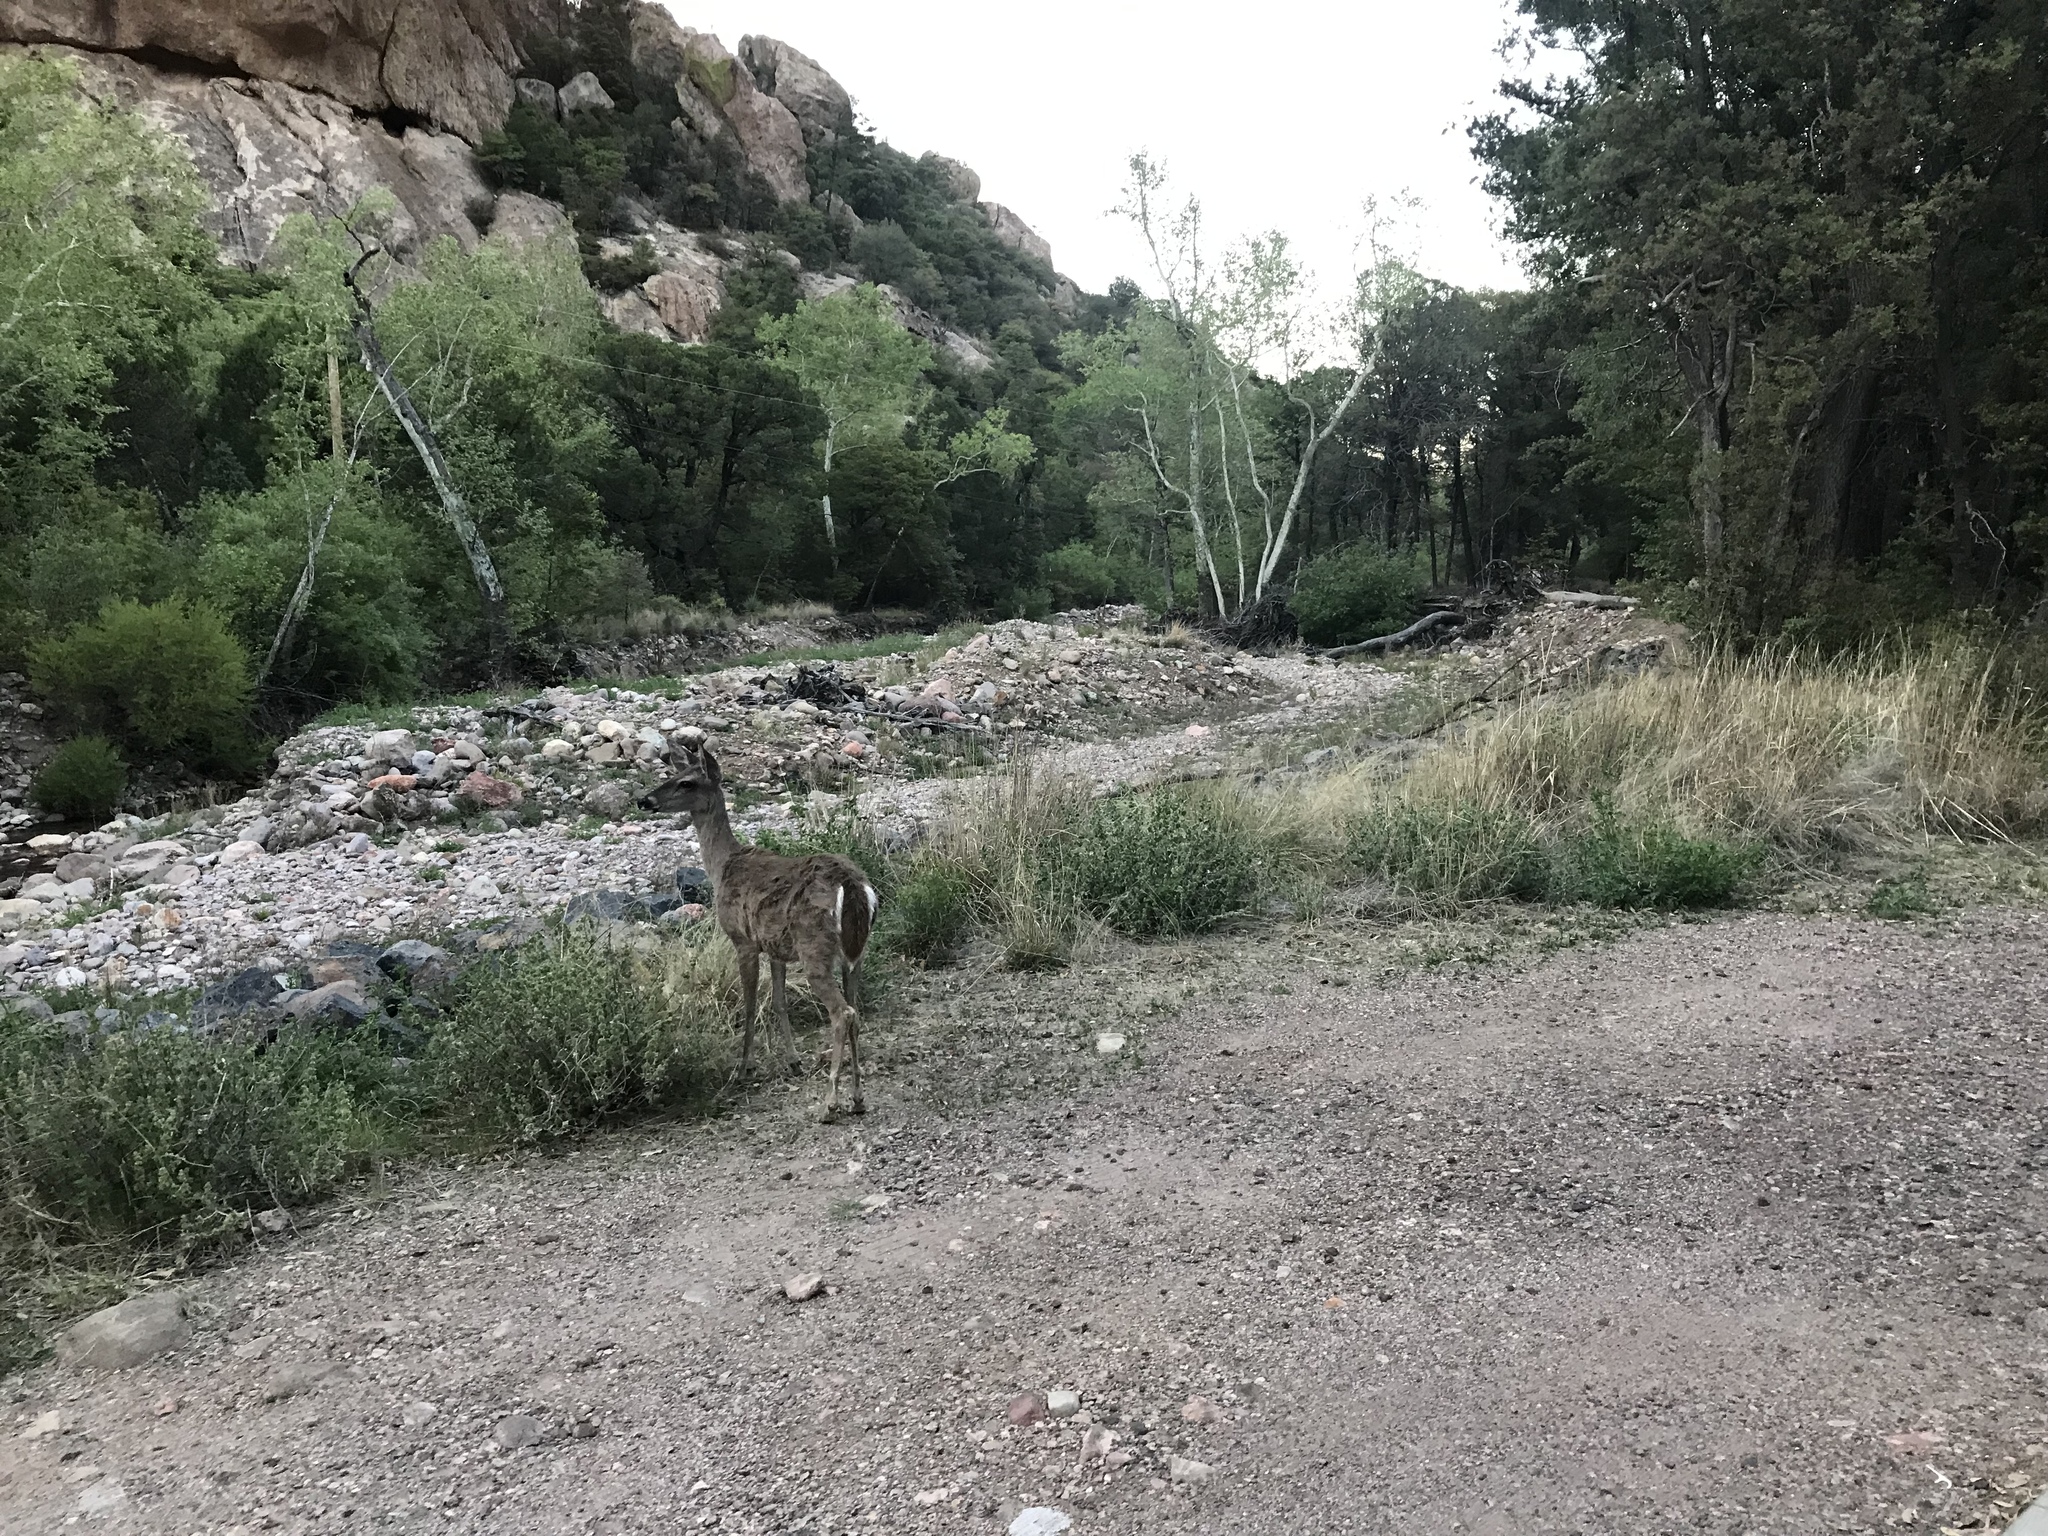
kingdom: Animalia
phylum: Chordata
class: Mammalia
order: Artiodactyla
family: Cervidae
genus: Odocoileus
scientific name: Odocoileus virginianus
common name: White-tailed deer
